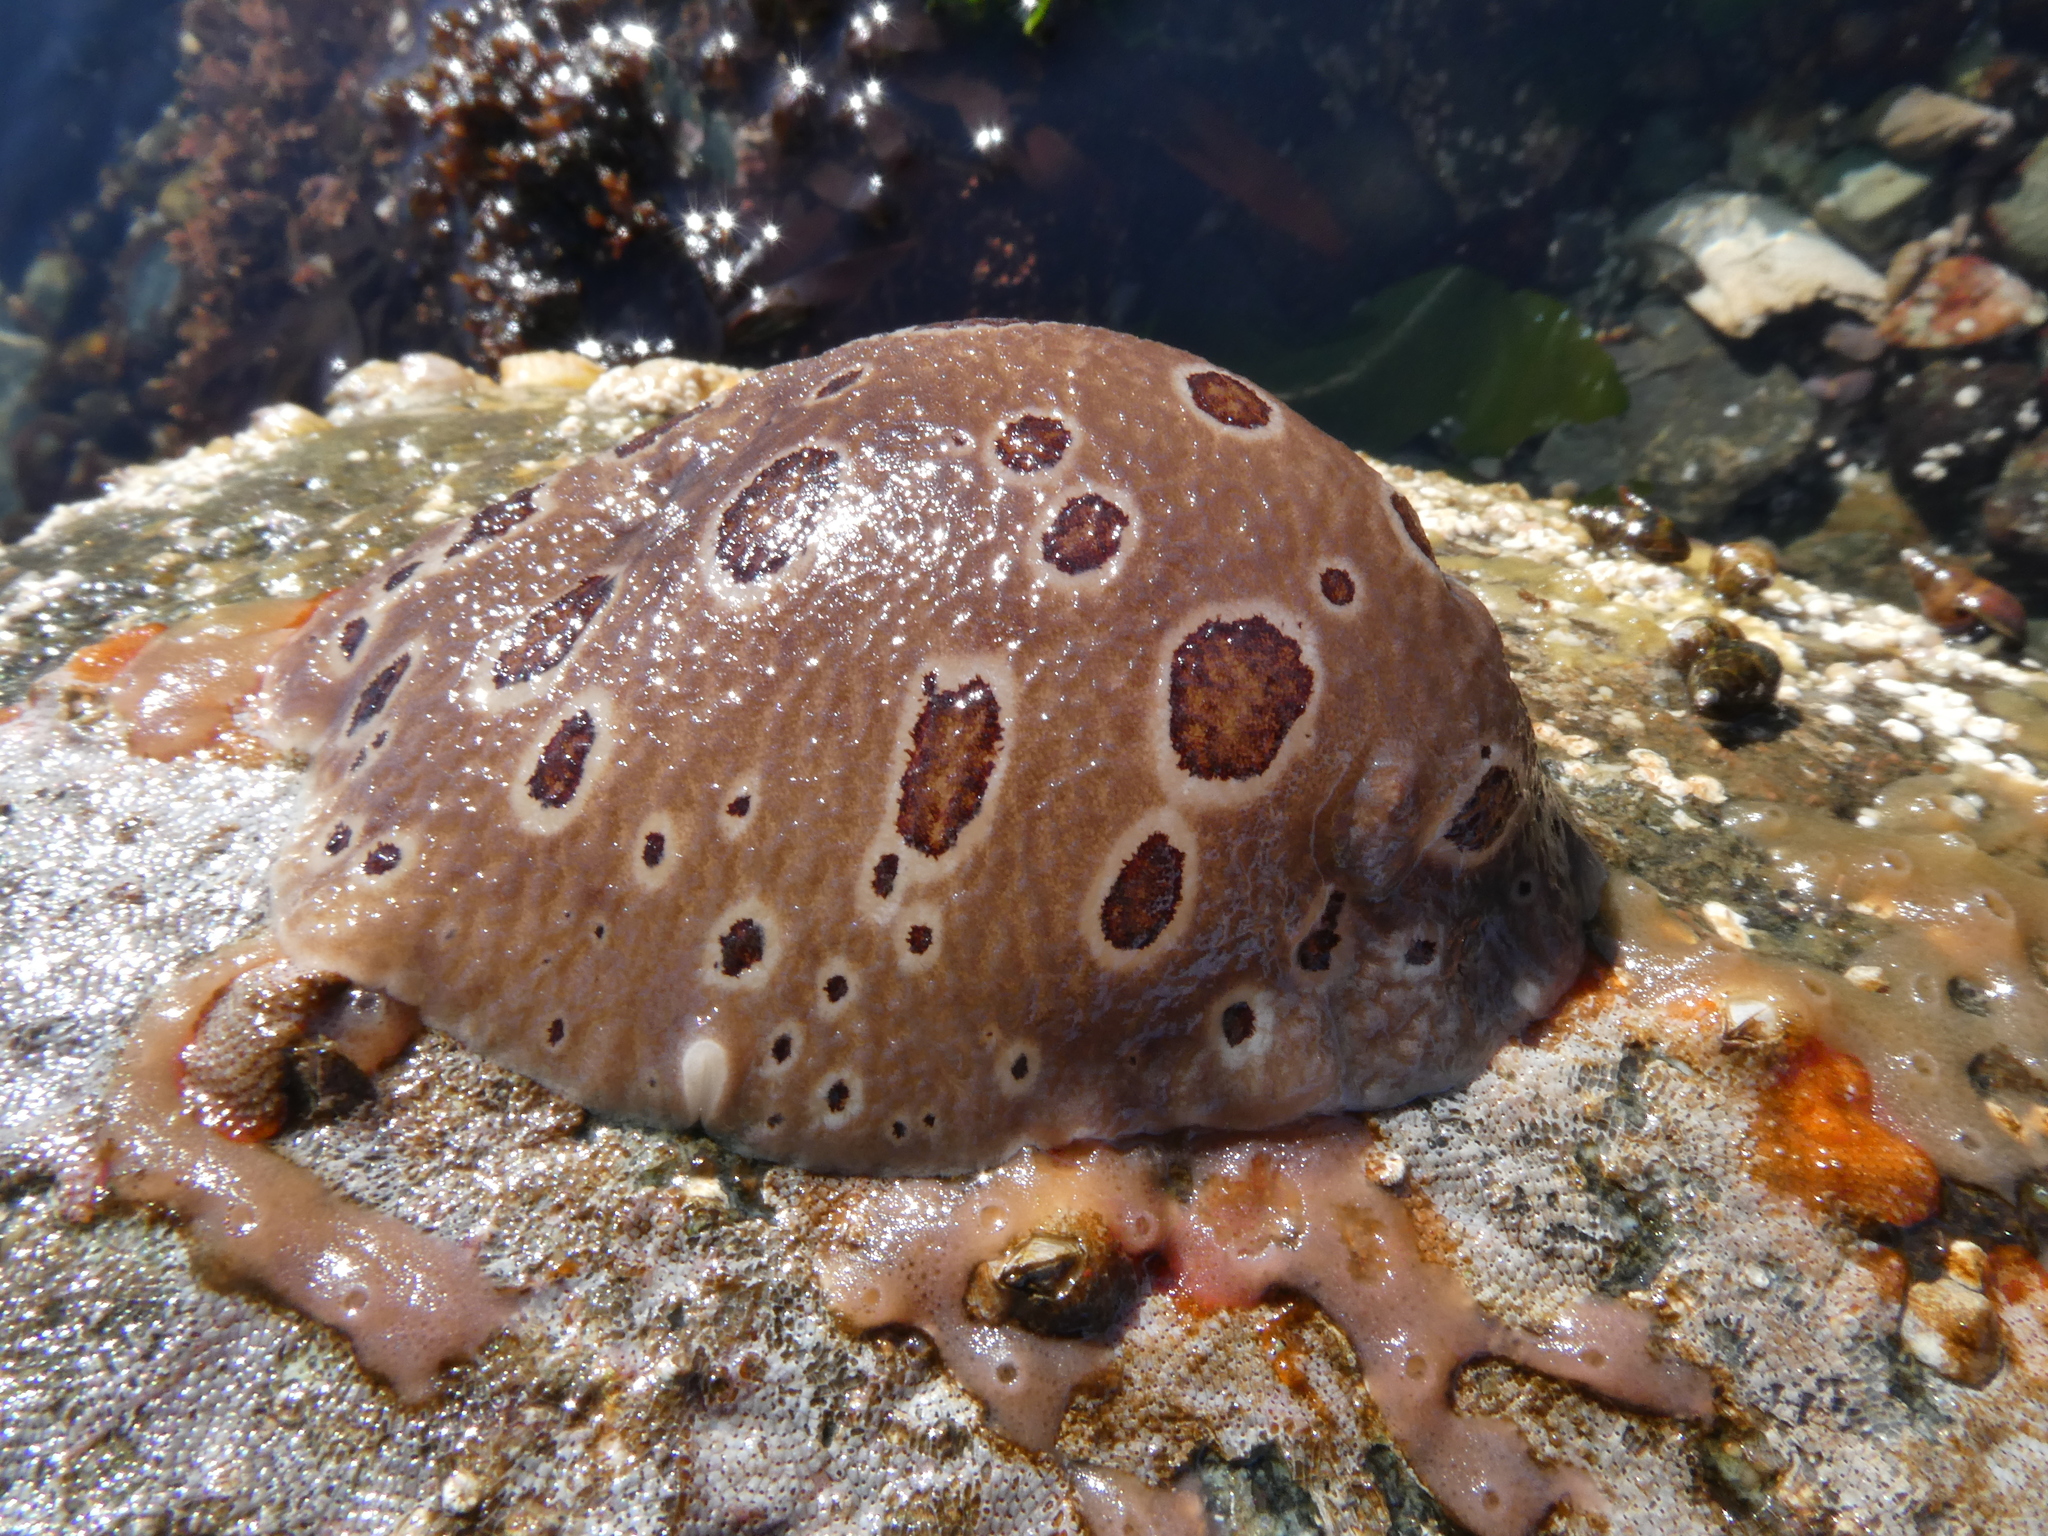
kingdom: Animalia
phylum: Mollusca
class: Gastropoda
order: Nudibranchia
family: Discodorididae
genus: Diaulula
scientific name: Diaulula odonoghuei
